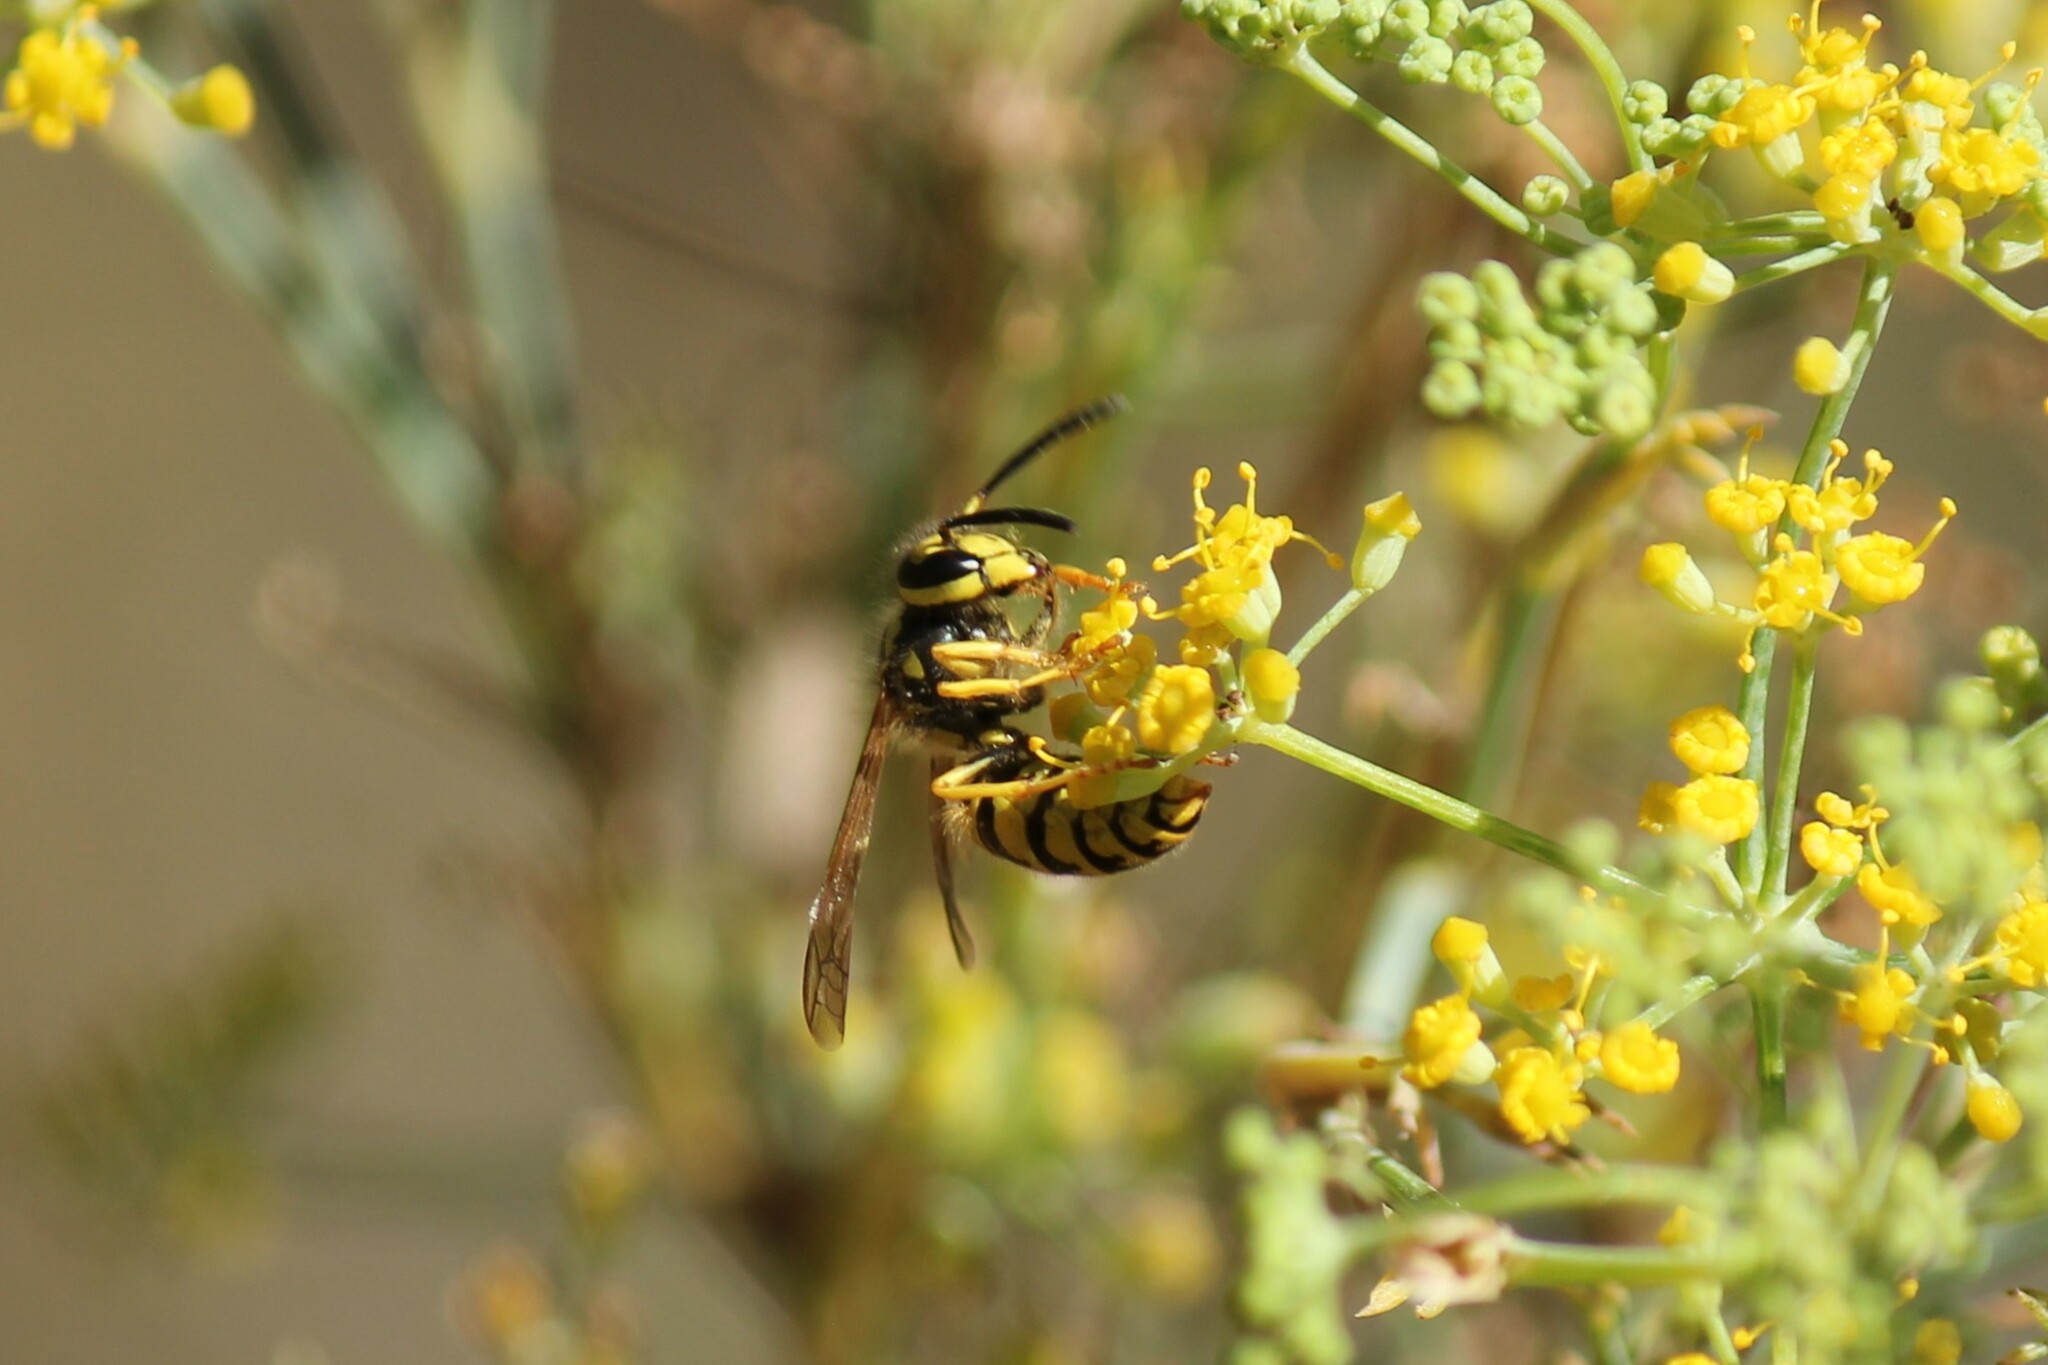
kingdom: Animalia
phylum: Arthropoda
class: Insecta
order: Hymenoptera
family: Vespidae
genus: Vespula
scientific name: Vespula pensylvanica
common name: Western yellowjacket
